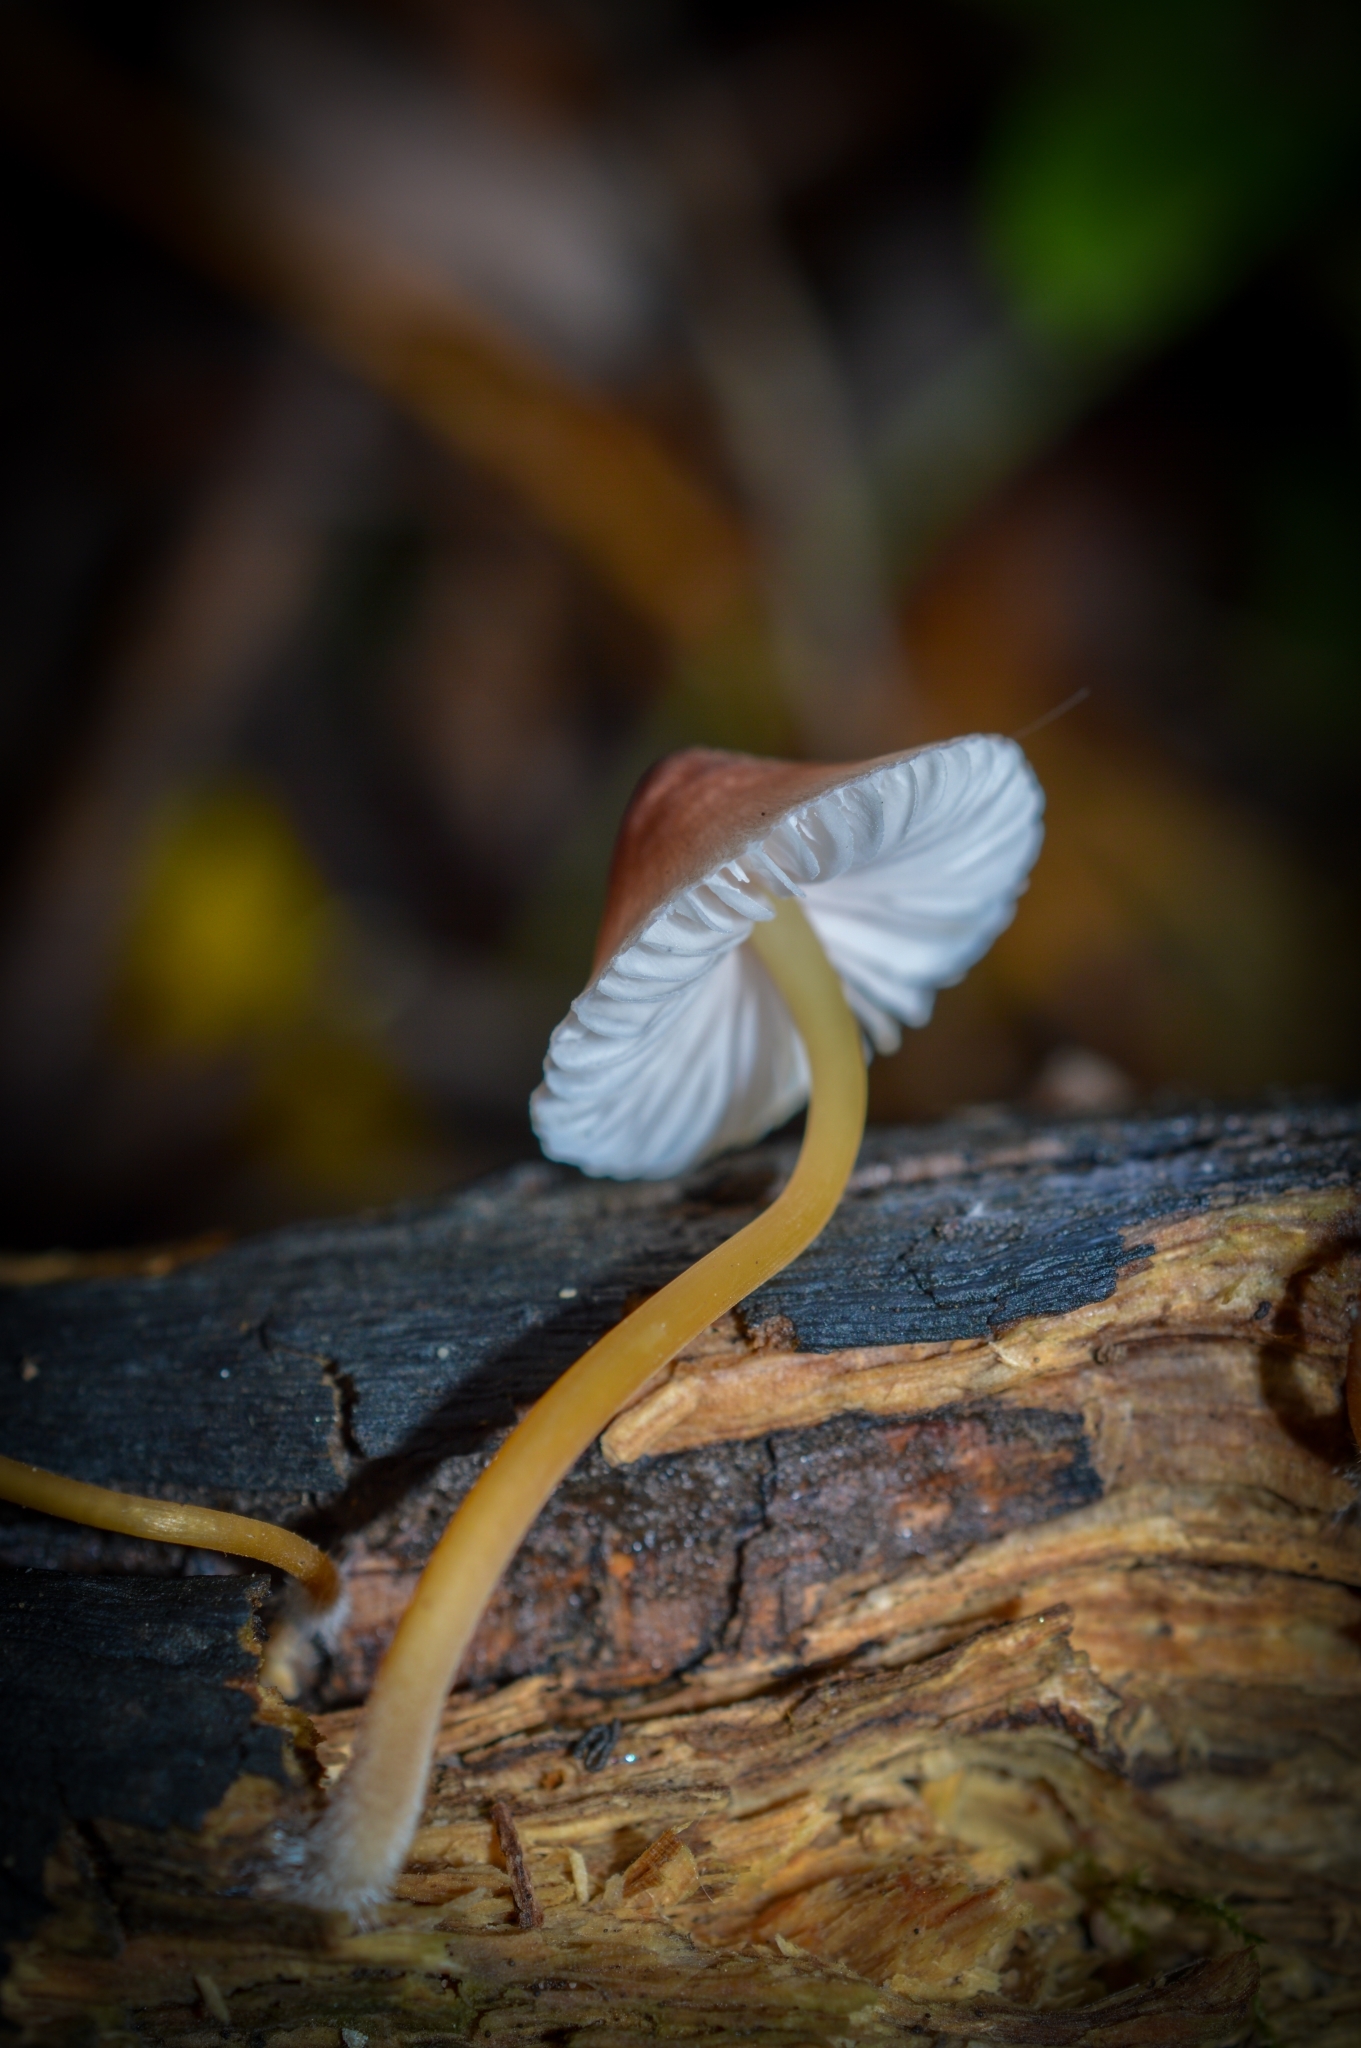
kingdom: Fungi
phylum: Basidiomycota
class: Agaricomycetes
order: Agaricales
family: Mycenaceae
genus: Mycena
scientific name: Mycena renati
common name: Beautiful bonnet
